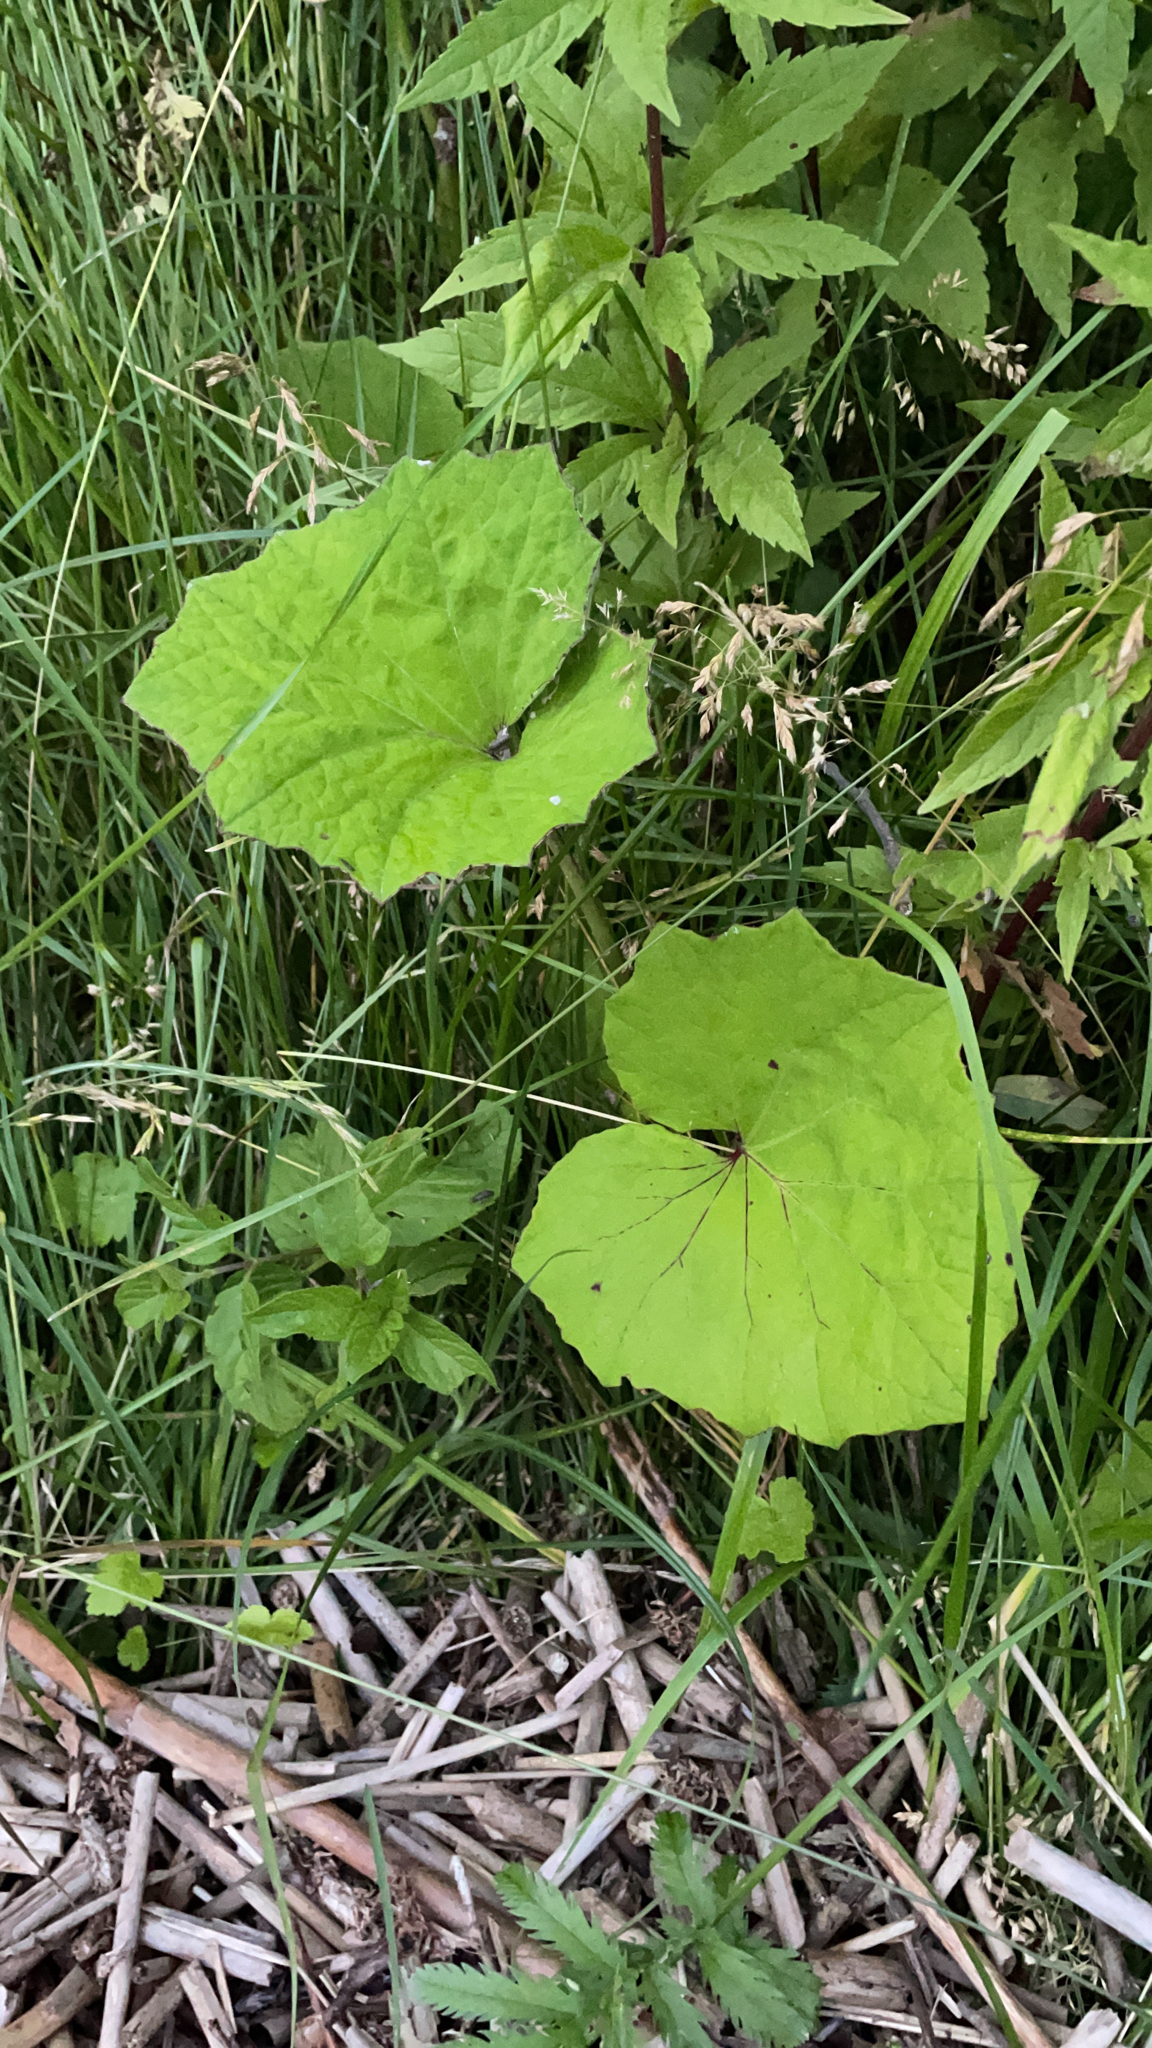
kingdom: Plantae
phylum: Tracheophyta
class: Magnoliopsida
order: Asterales
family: Asteraceae
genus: Tussilago
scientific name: Tussilago farfara
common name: Coltsfoot
